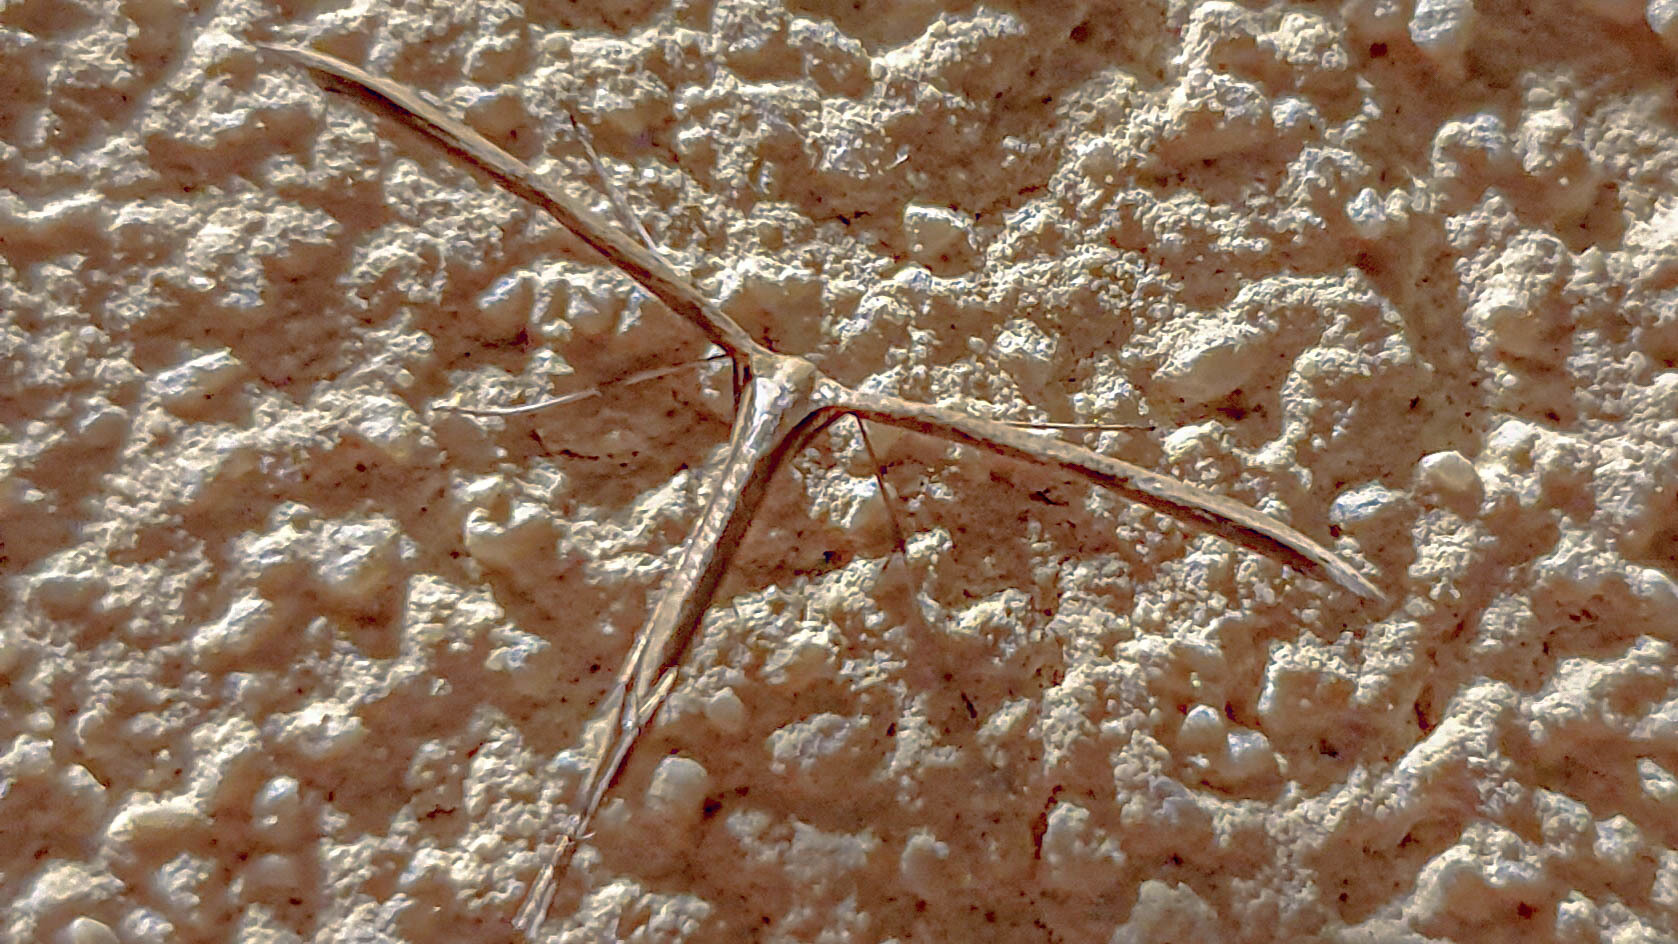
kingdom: Animalia
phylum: Arthropoda
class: Insecta
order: Lepidoptera
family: Pterophoridae
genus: Emmelina
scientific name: Emmelina monodactyla
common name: Common plume
